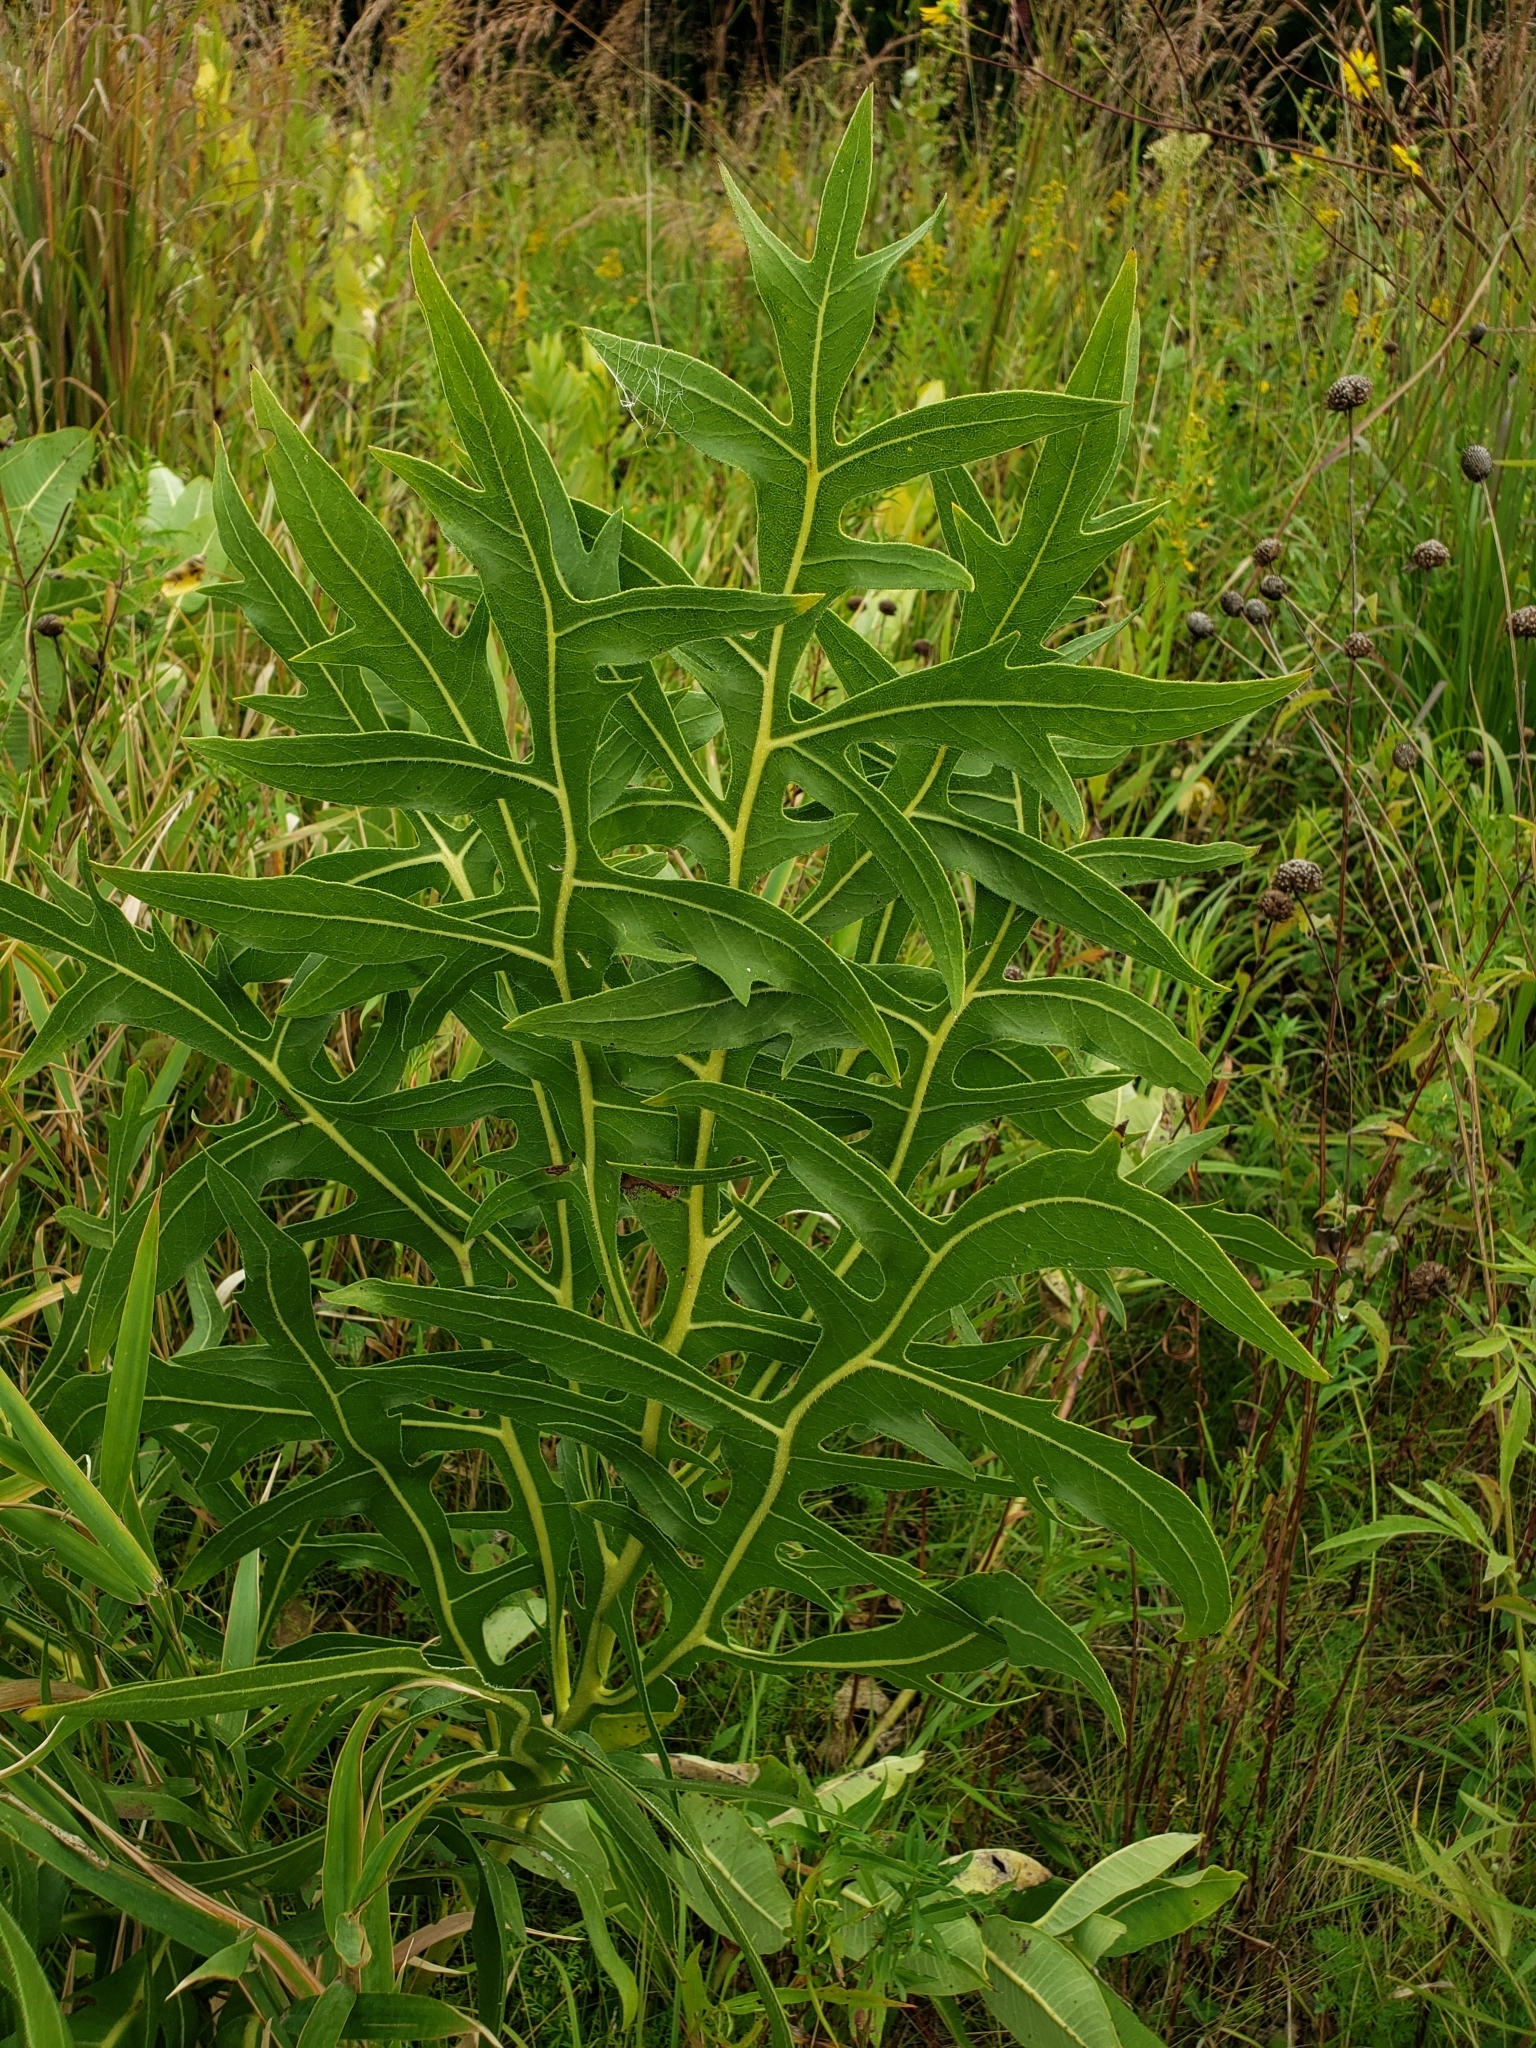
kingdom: Plantae
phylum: Tracheophyta
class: Magnoliopsida
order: Asterales
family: Asteraceae
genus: Silphium
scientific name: Silphium laciniatum
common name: Polarplant
